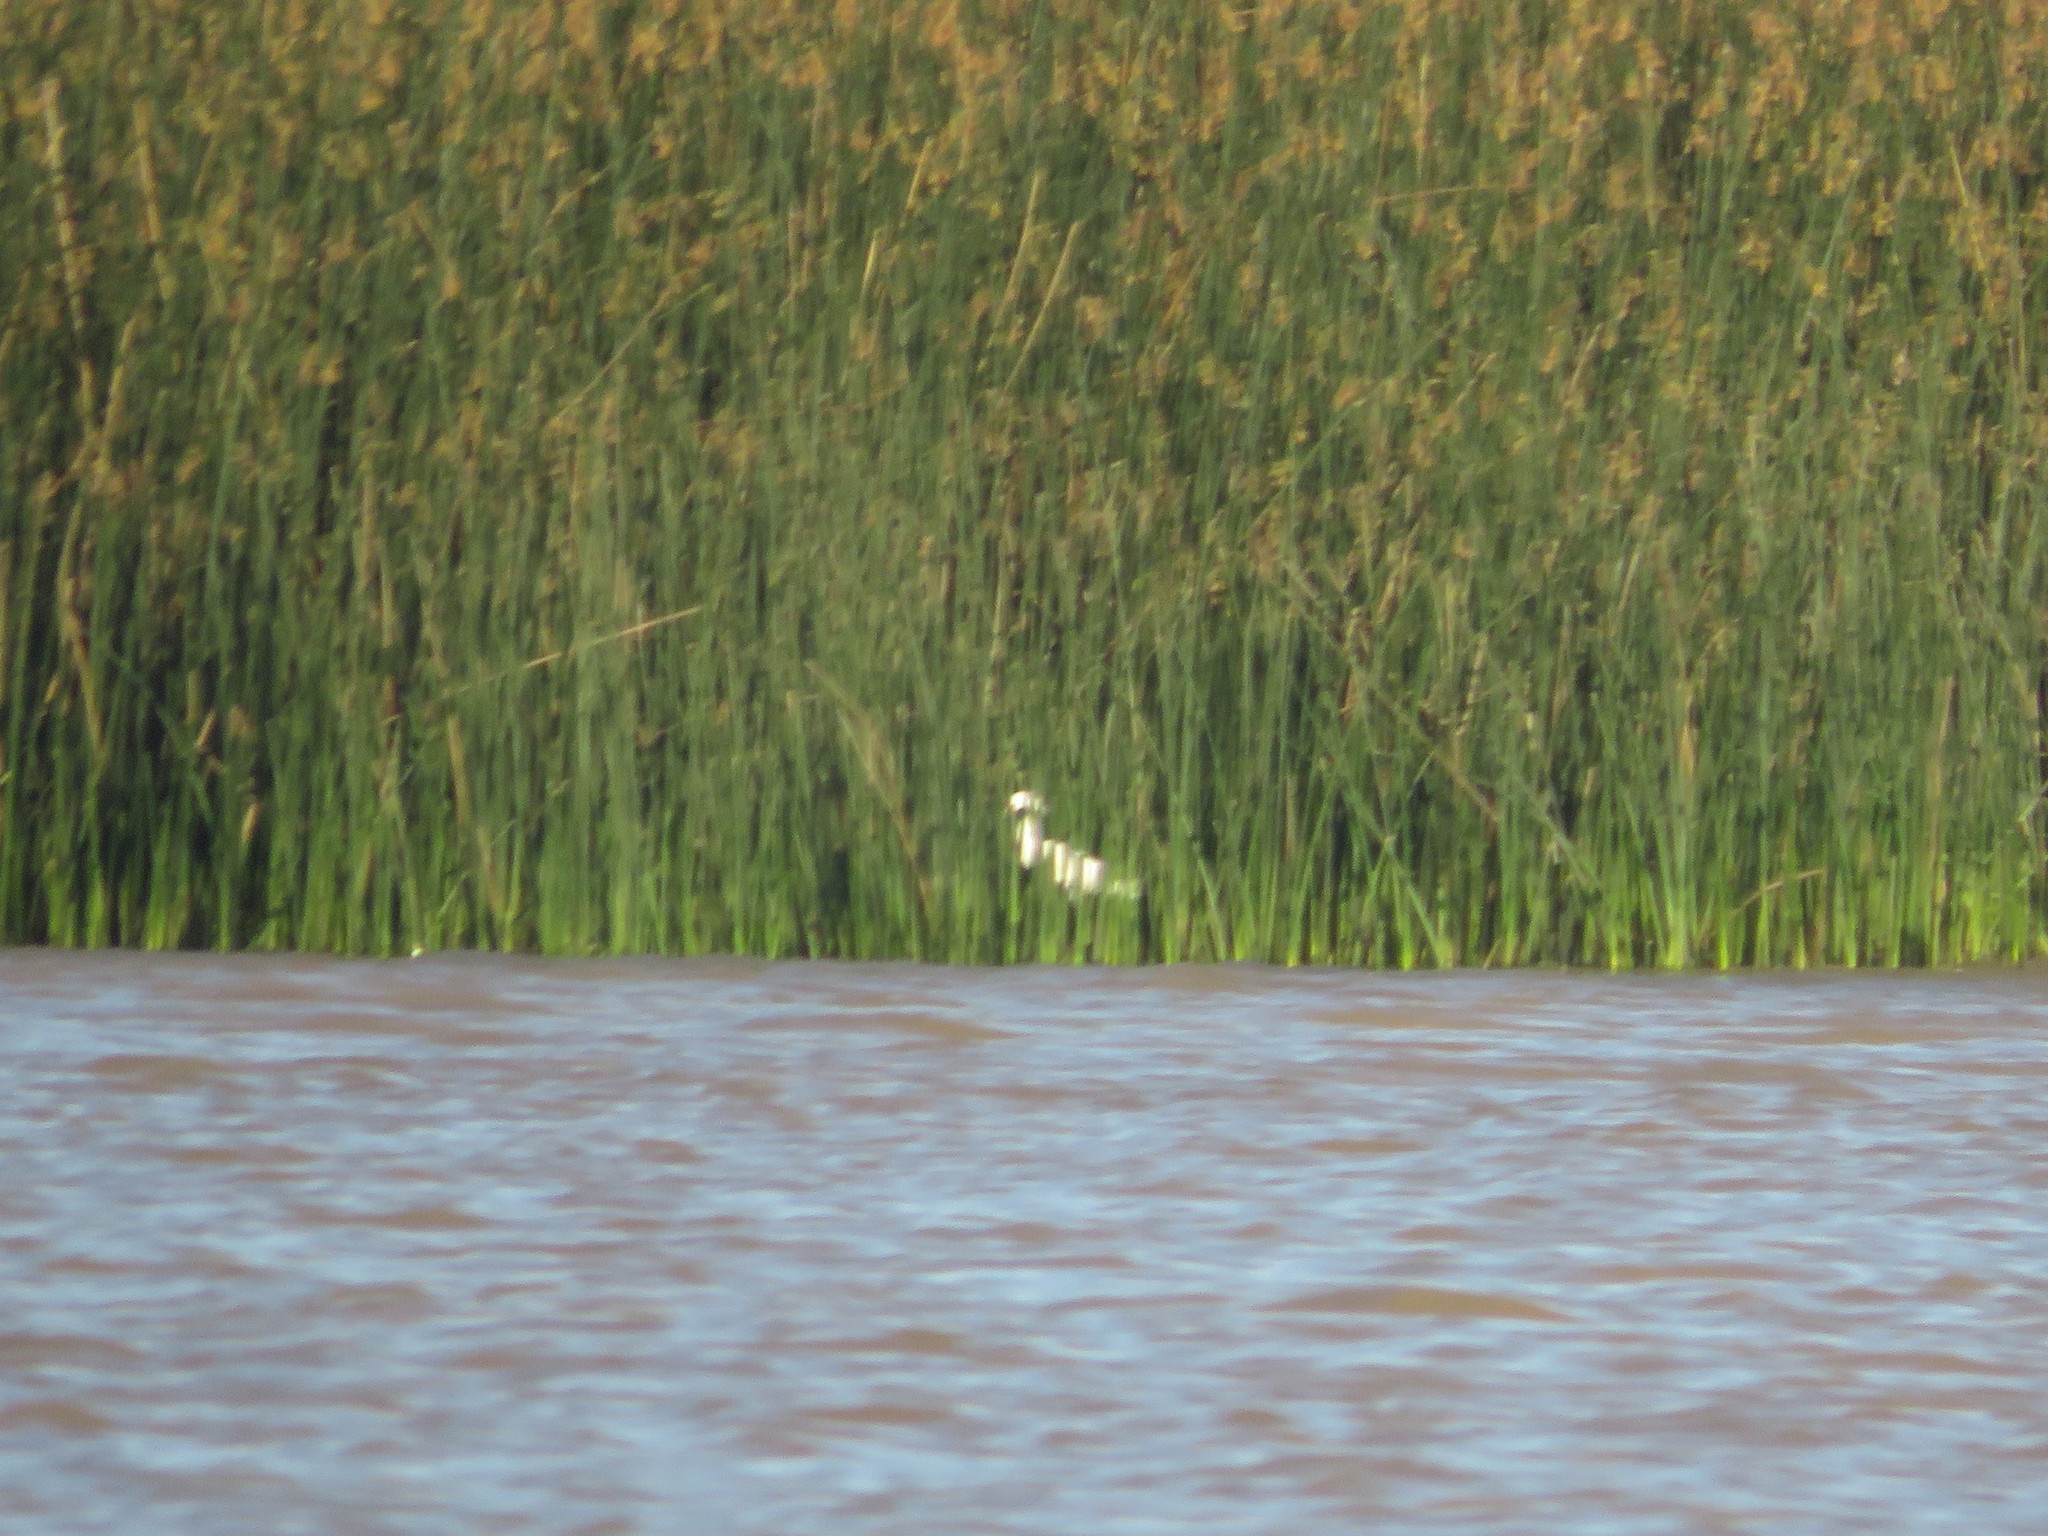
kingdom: Animalia
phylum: Chordata
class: Aves
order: Pelecaniformes
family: Ardeidae
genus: Ardea
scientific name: Ardea alba
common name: Great egret
